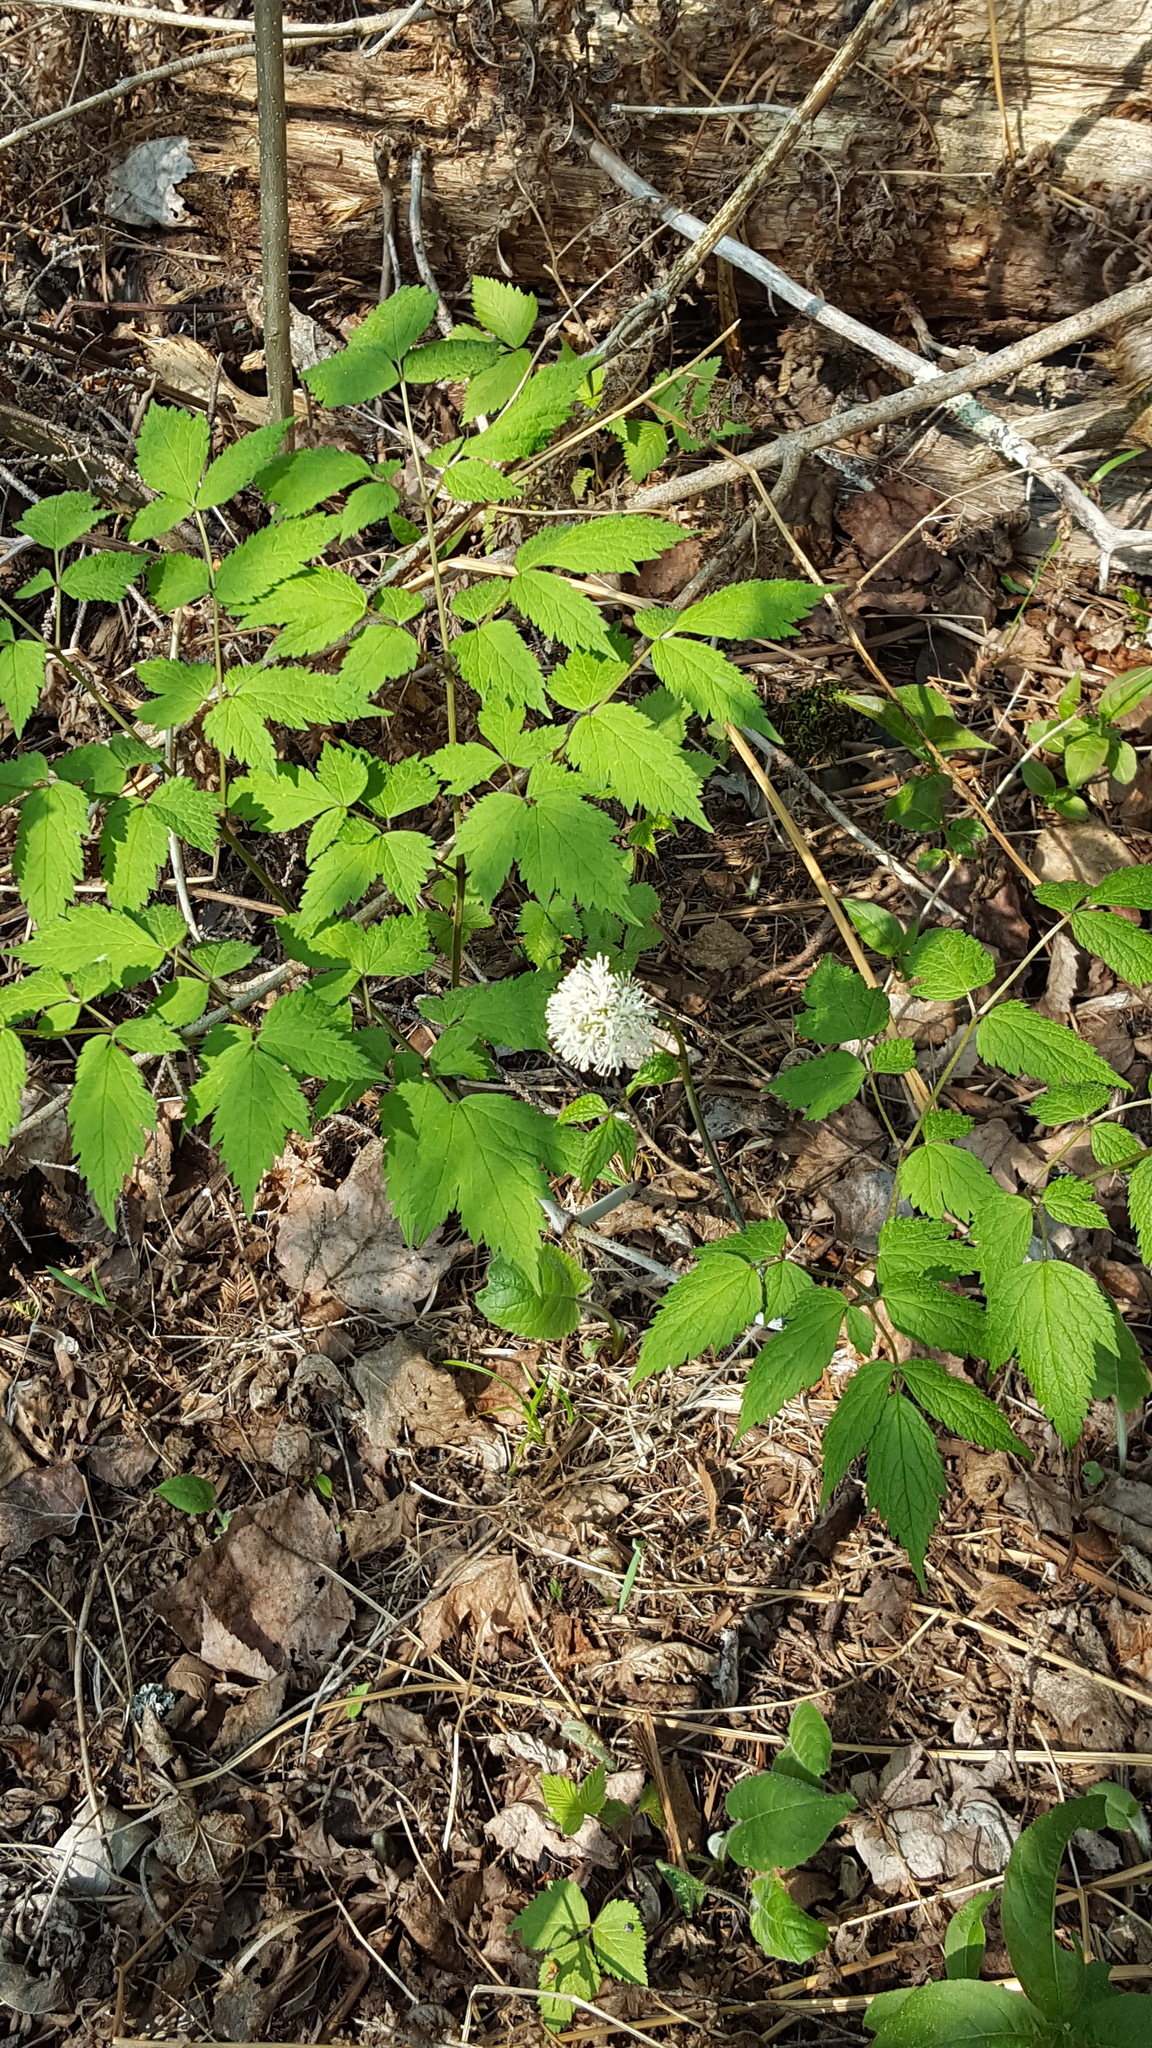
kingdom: Plantae
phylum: Tracheophyta
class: Magnoliopsida
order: Ranunculales
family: Ranunculaceae
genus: Actaea
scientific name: Actaea rubra
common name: Red baneberry
